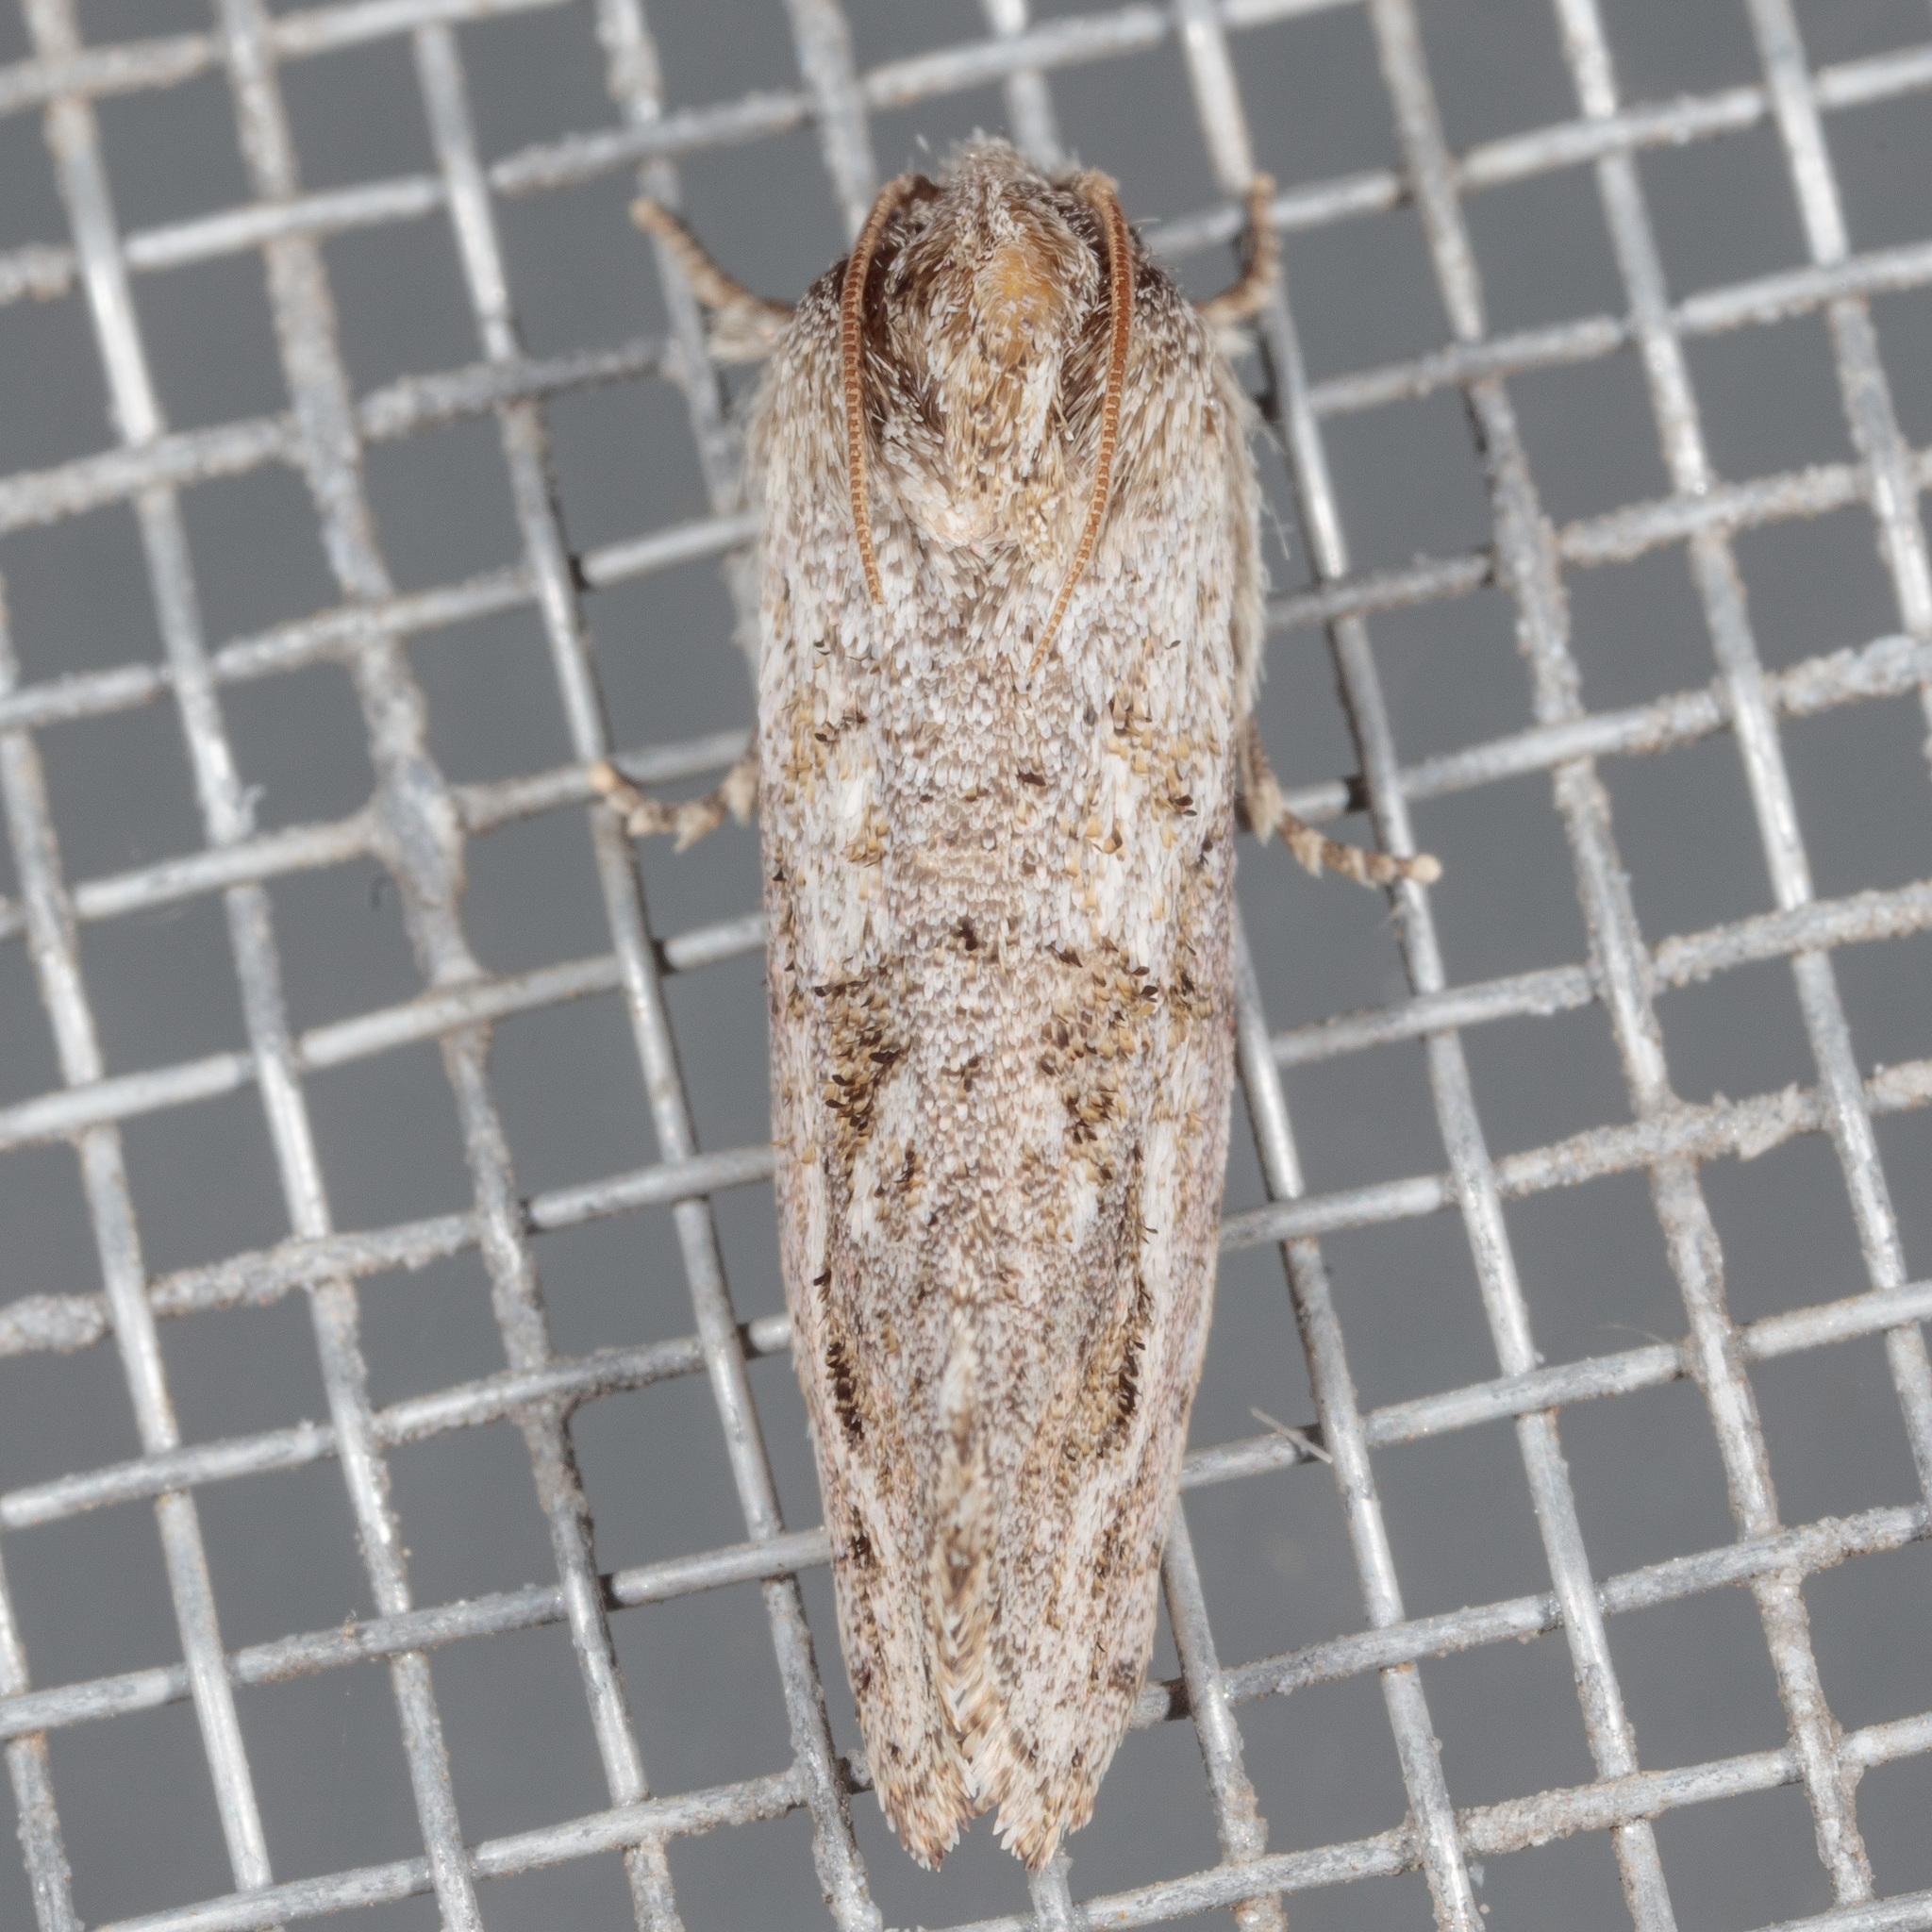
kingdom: Animalia
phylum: Arthropoda
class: Insecta
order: Lepidoptera
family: Tineidae
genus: Acrolophus
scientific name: Acrolophus griseus
